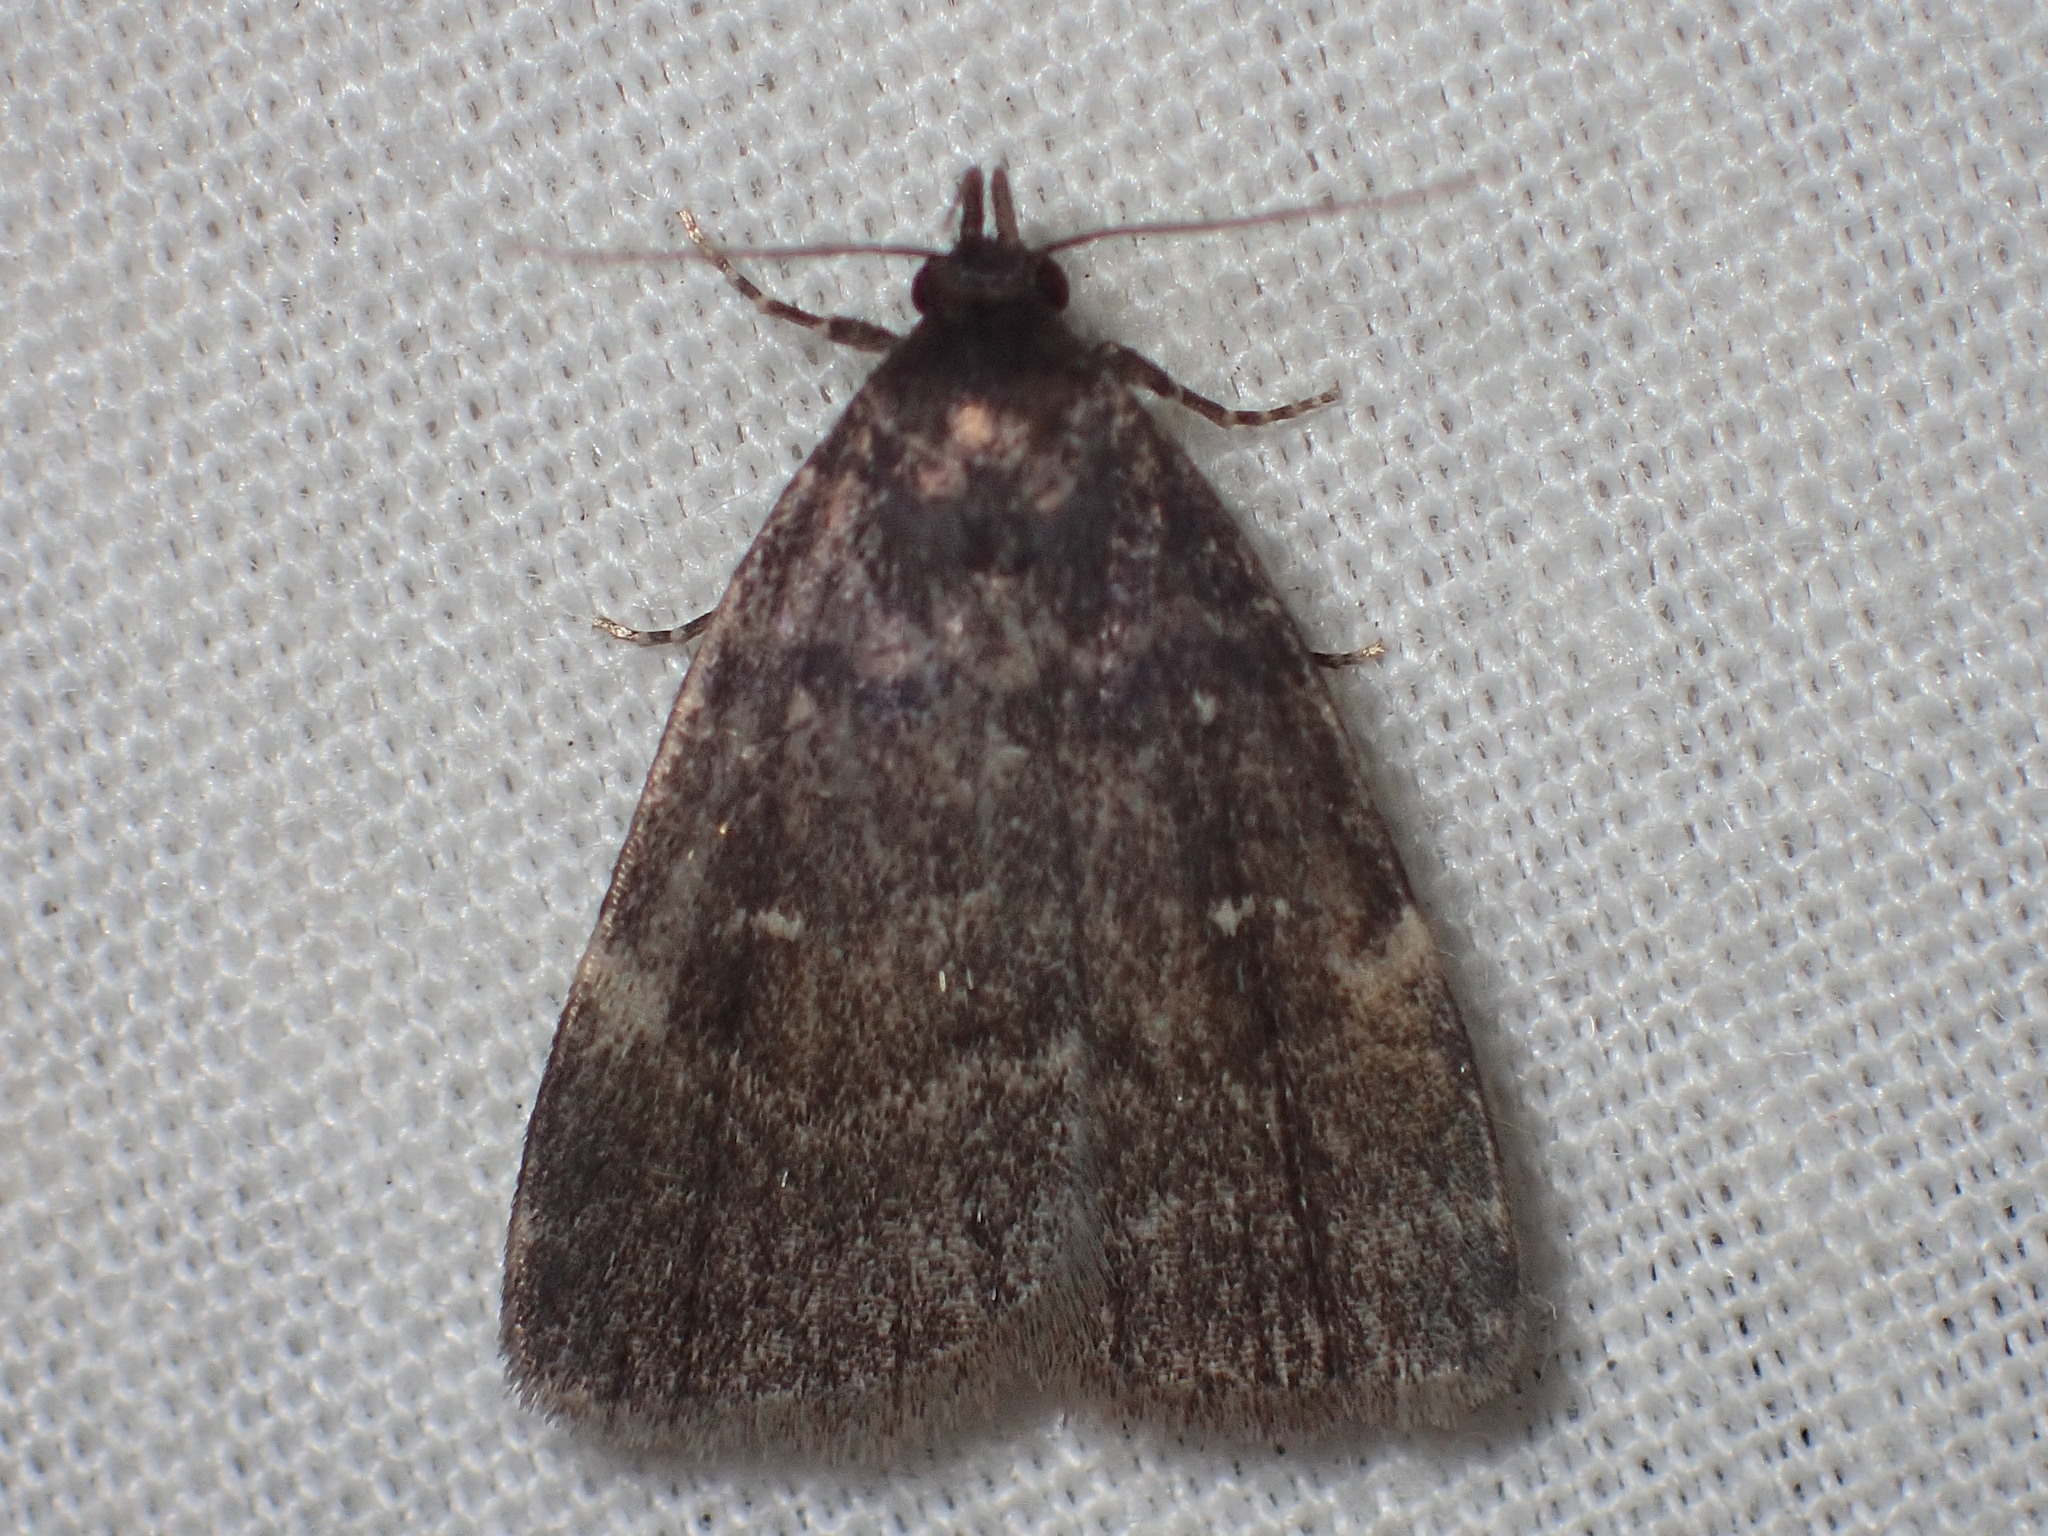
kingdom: Animalia
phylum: Arthropoda
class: Insecta
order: Lepidoptera
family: Erebidae
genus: Idia
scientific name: Idia julia
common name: Julia's idia moth
